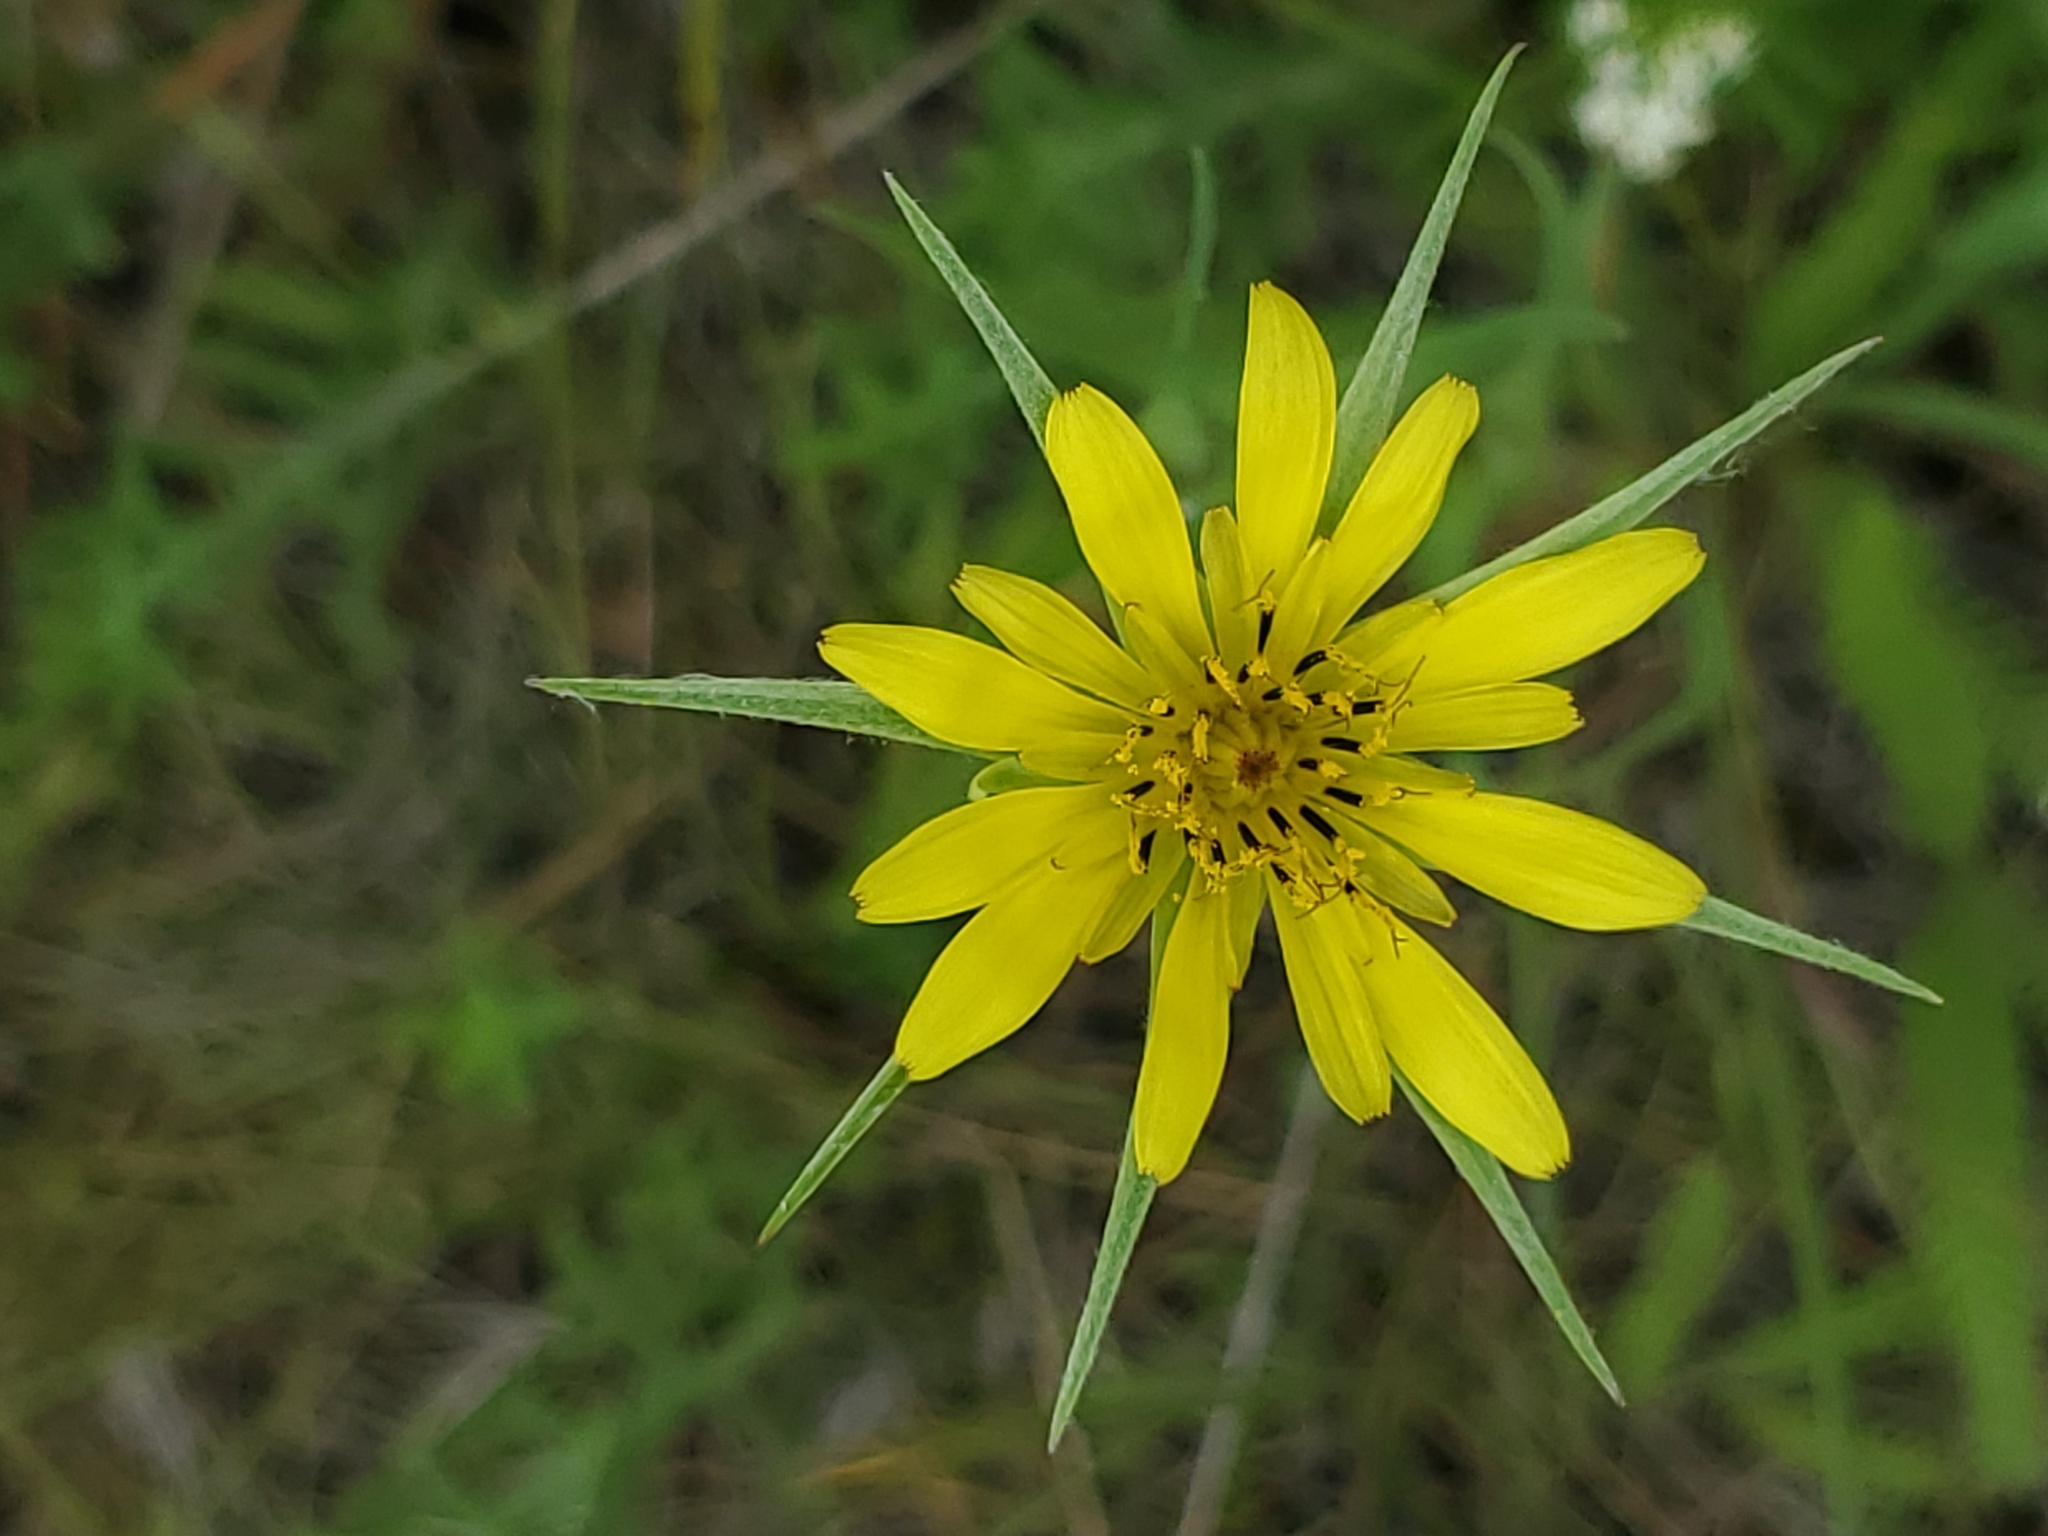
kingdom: Plantae
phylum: Tracheophyta
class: Magnoliopsida
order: Asterales
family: Asteraceae
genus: Tragopogon
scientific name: Tragopogon dubius
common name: Yellow salsify
